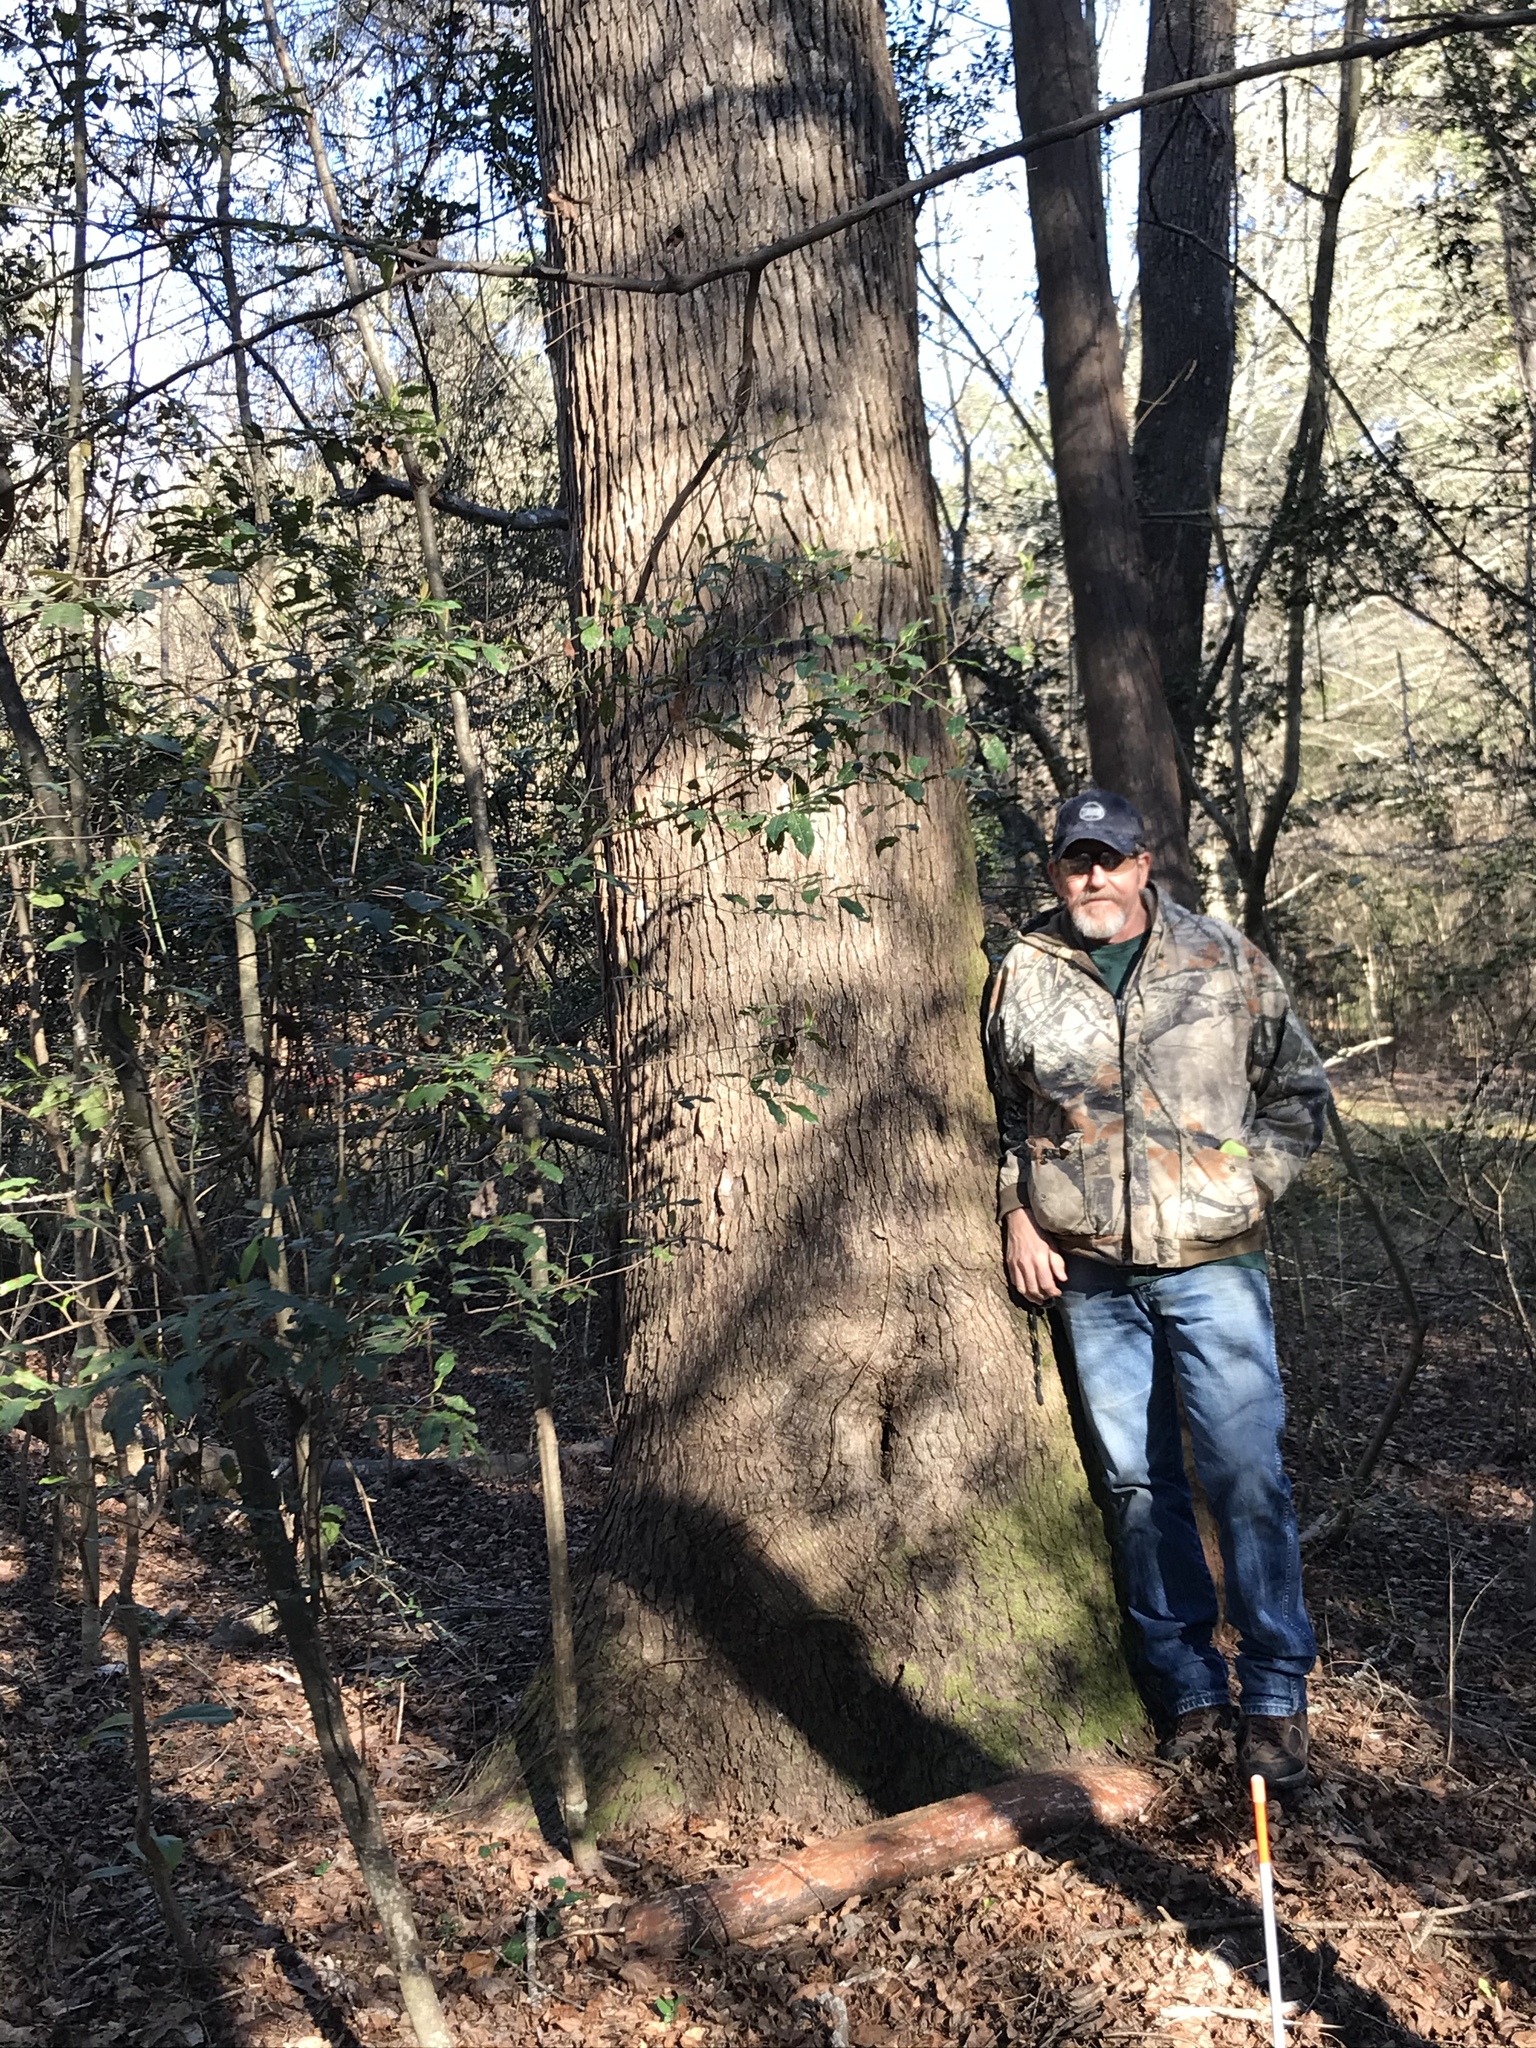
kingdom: Plantae
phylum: Tracheophyta
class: Magnoliopsida
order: Saxifragales
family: Altingiaceae
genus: Liquidambar
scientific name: Liquidambar styraciflua
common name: Sweet gum
